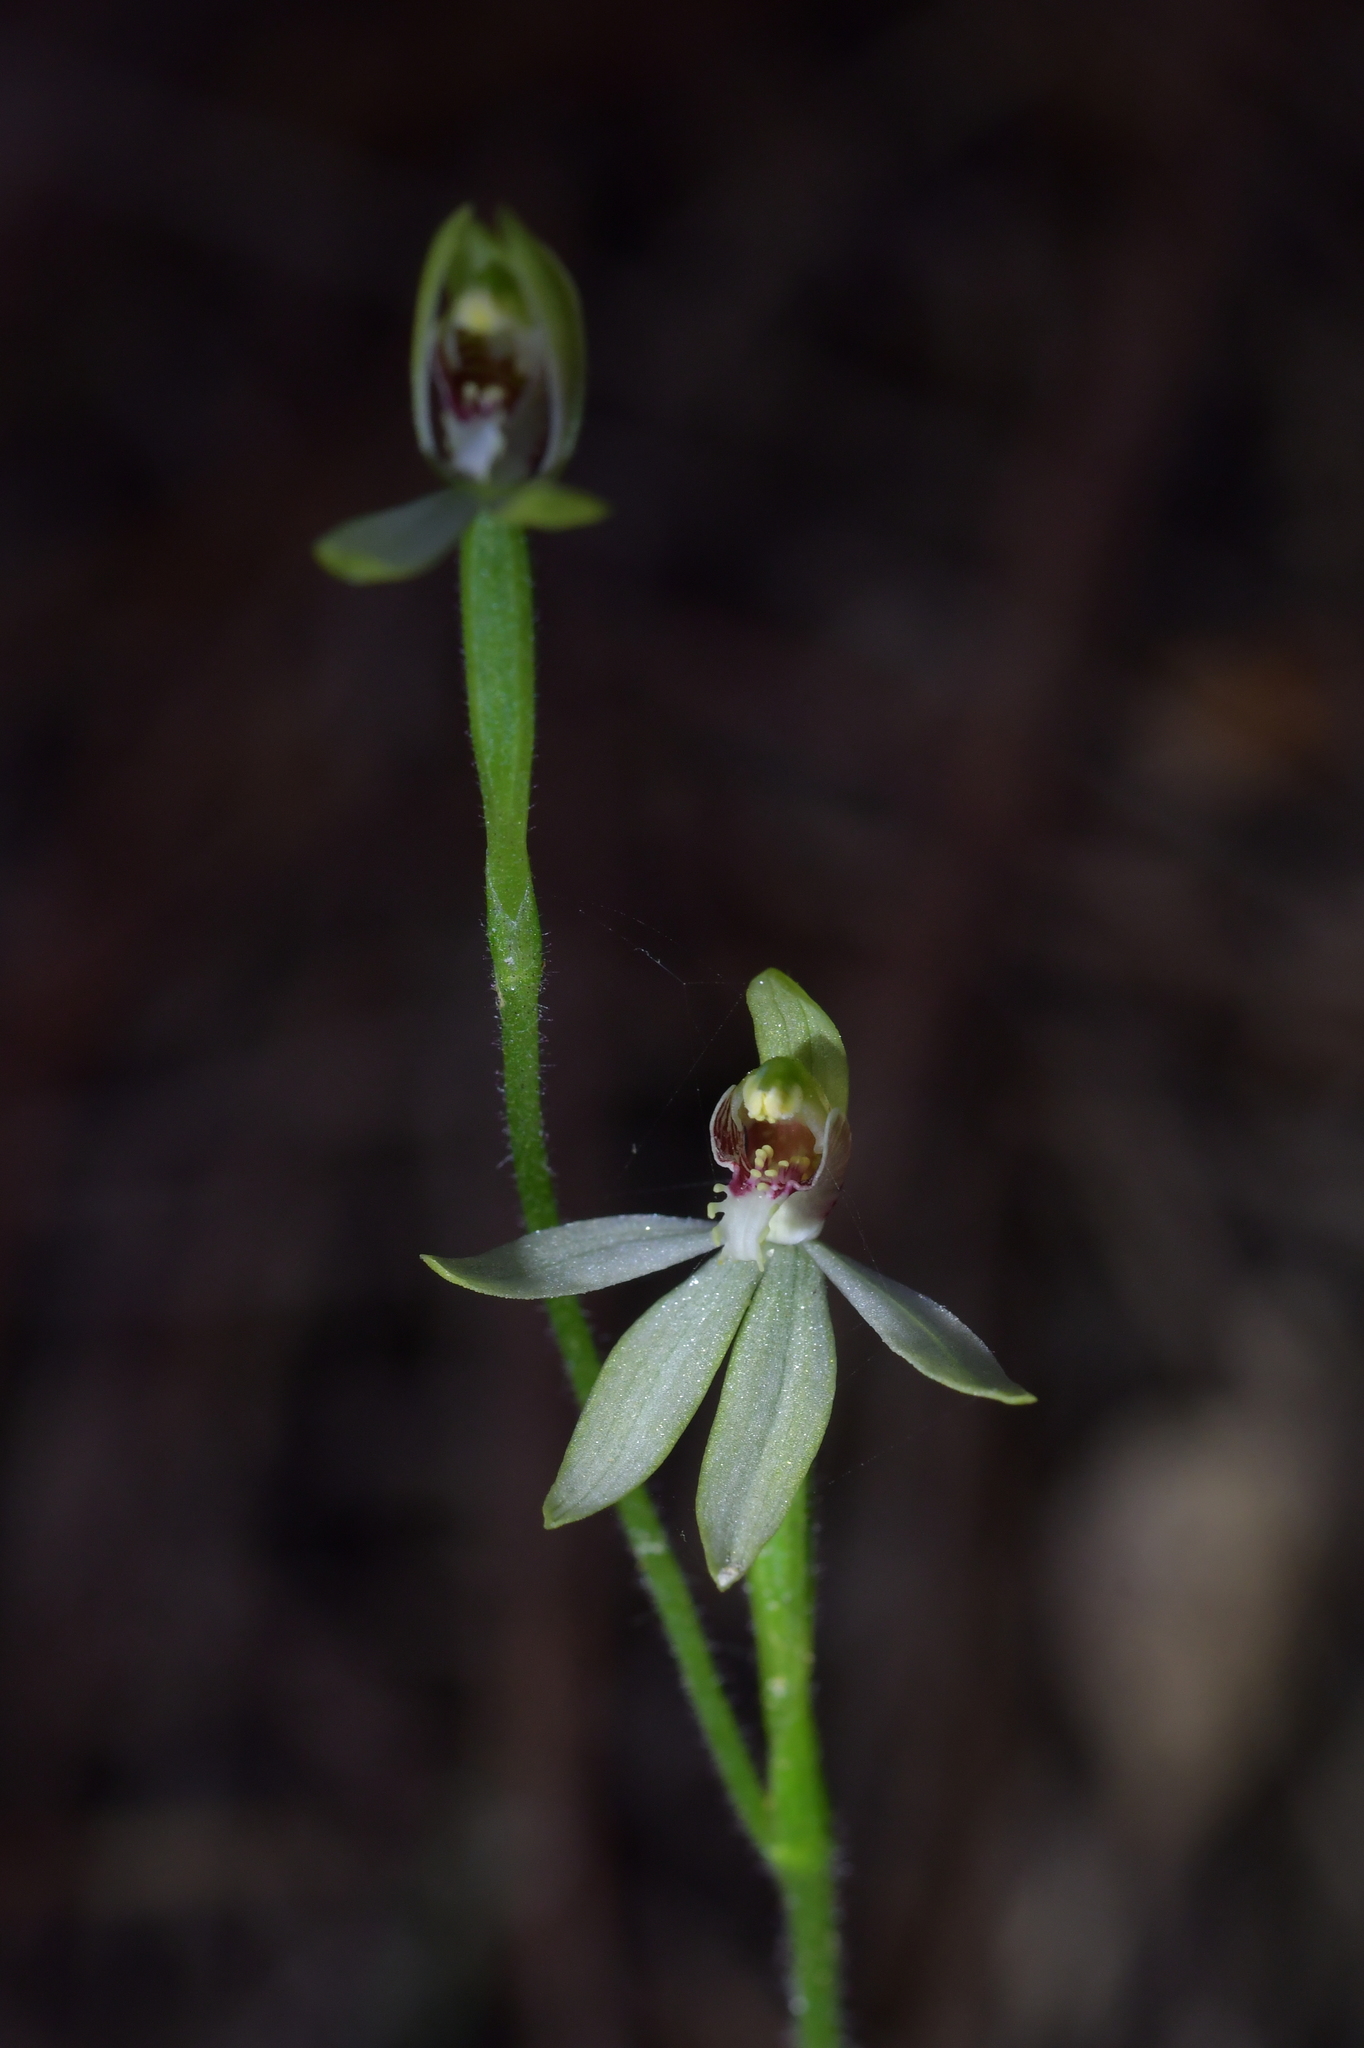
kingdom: Plantae
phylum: Tracheophyta
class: Liliopsida
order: Asparagales
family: Orchidaceae
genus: Caladenia
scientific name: Caladenia chlorostyla
